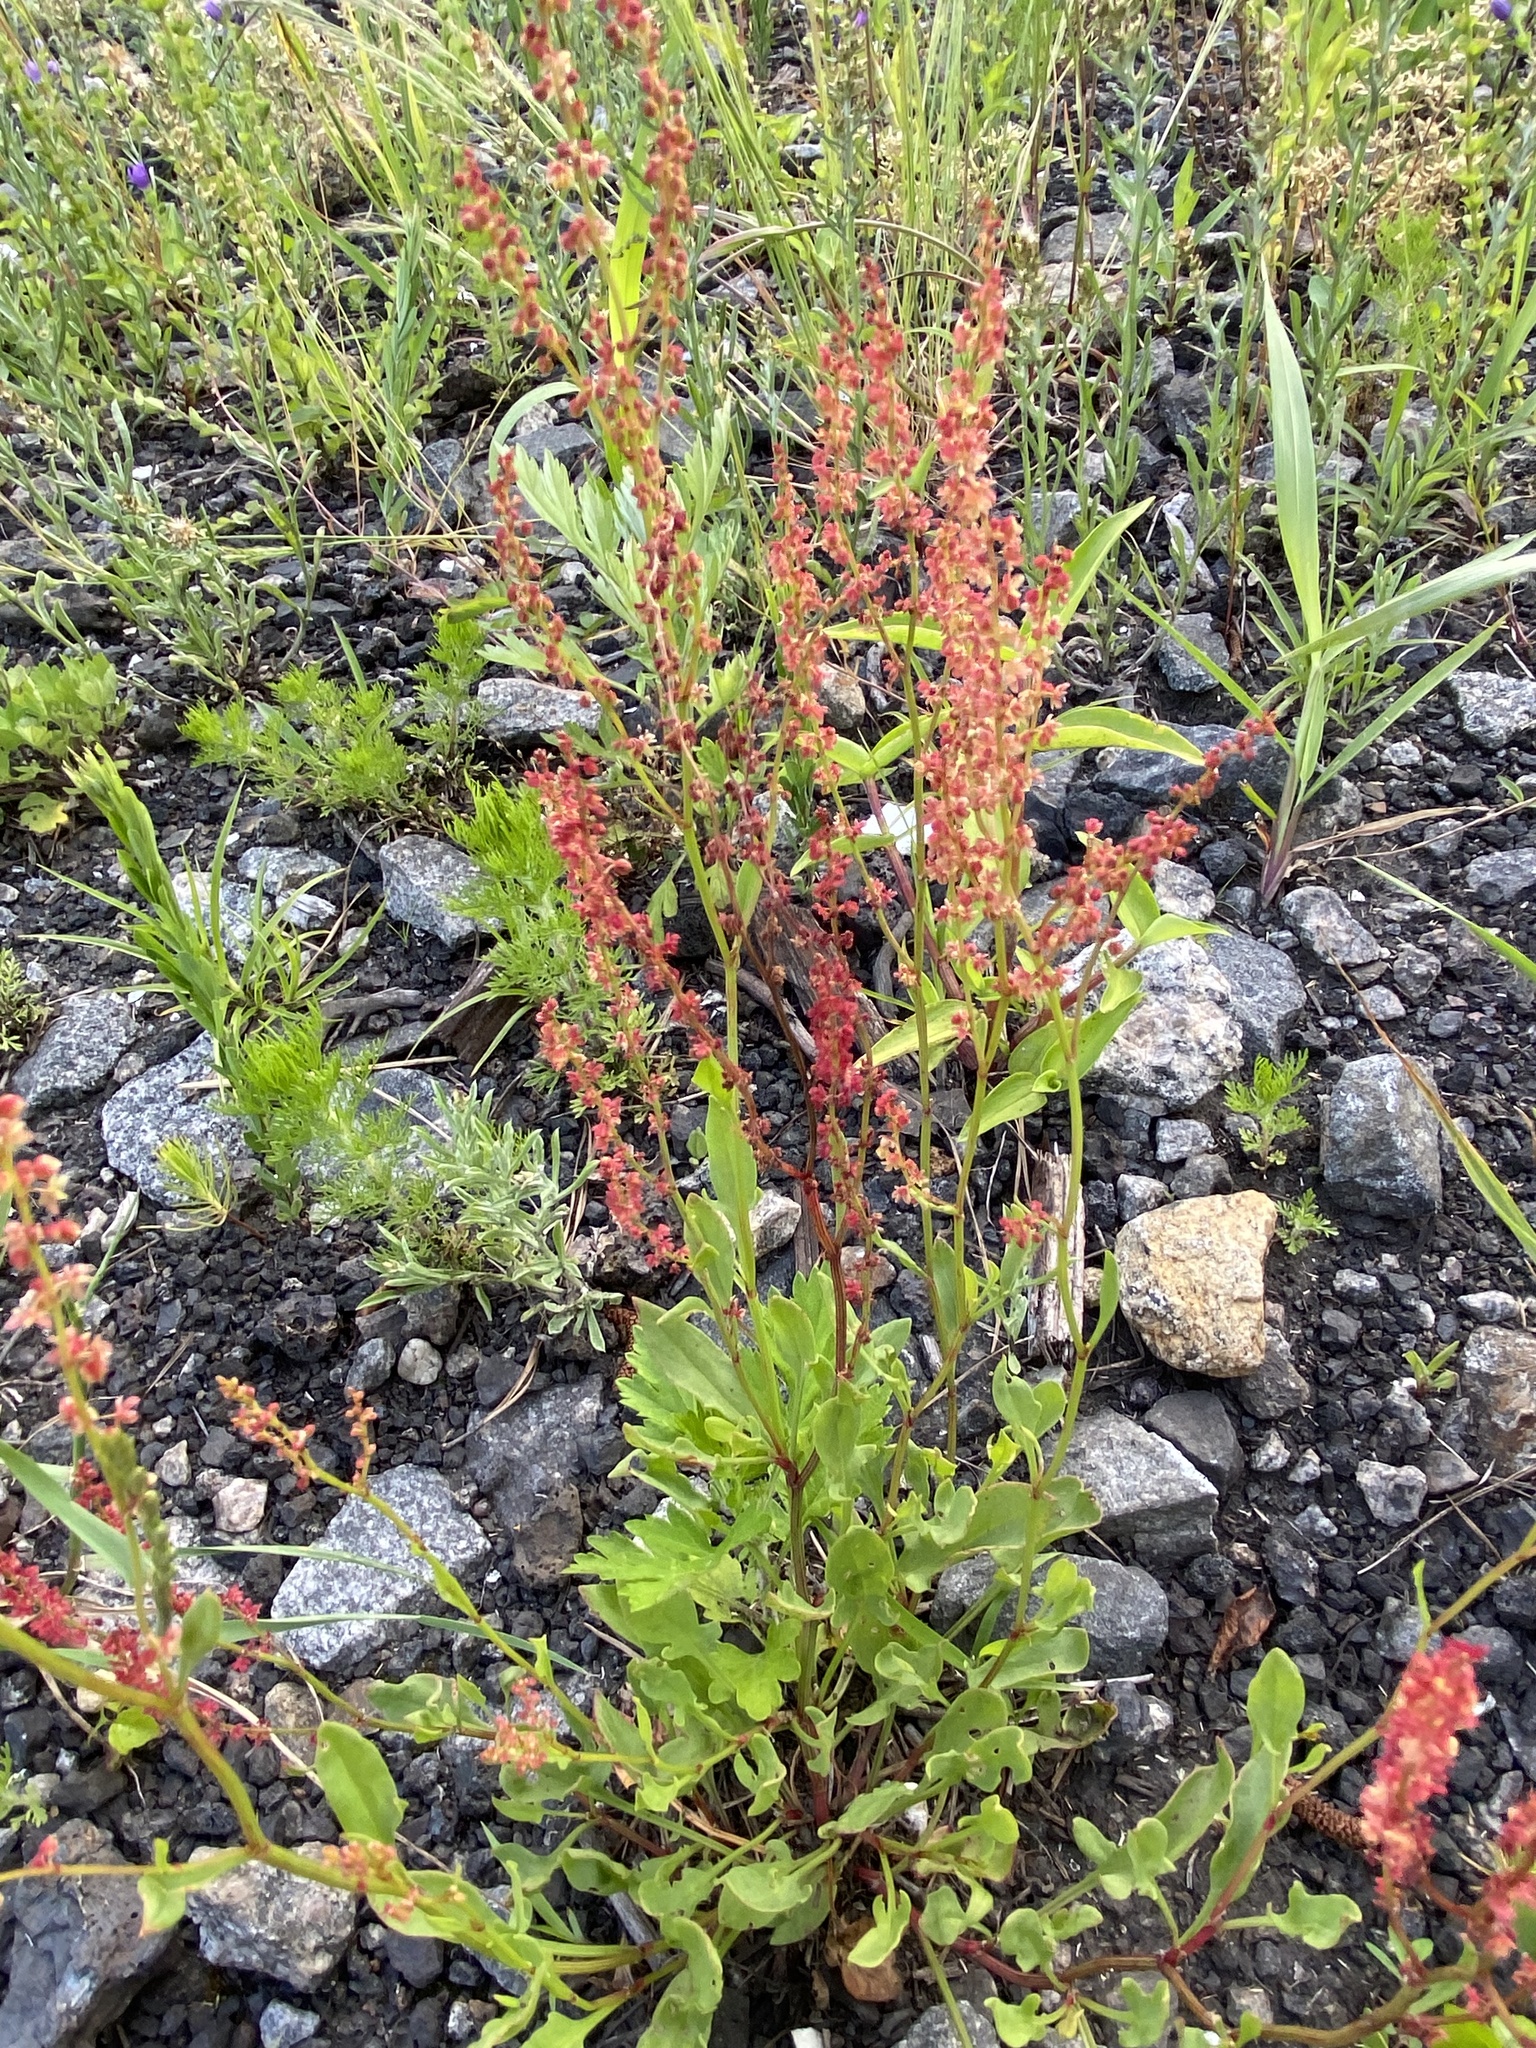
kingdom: Plantae
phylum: Tracheophyta
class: Magnoliopsida
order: Caryophyllales
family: Polygonaceae
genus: Rumex
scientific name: Rumex acetosella
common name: Common sheep sorrel
